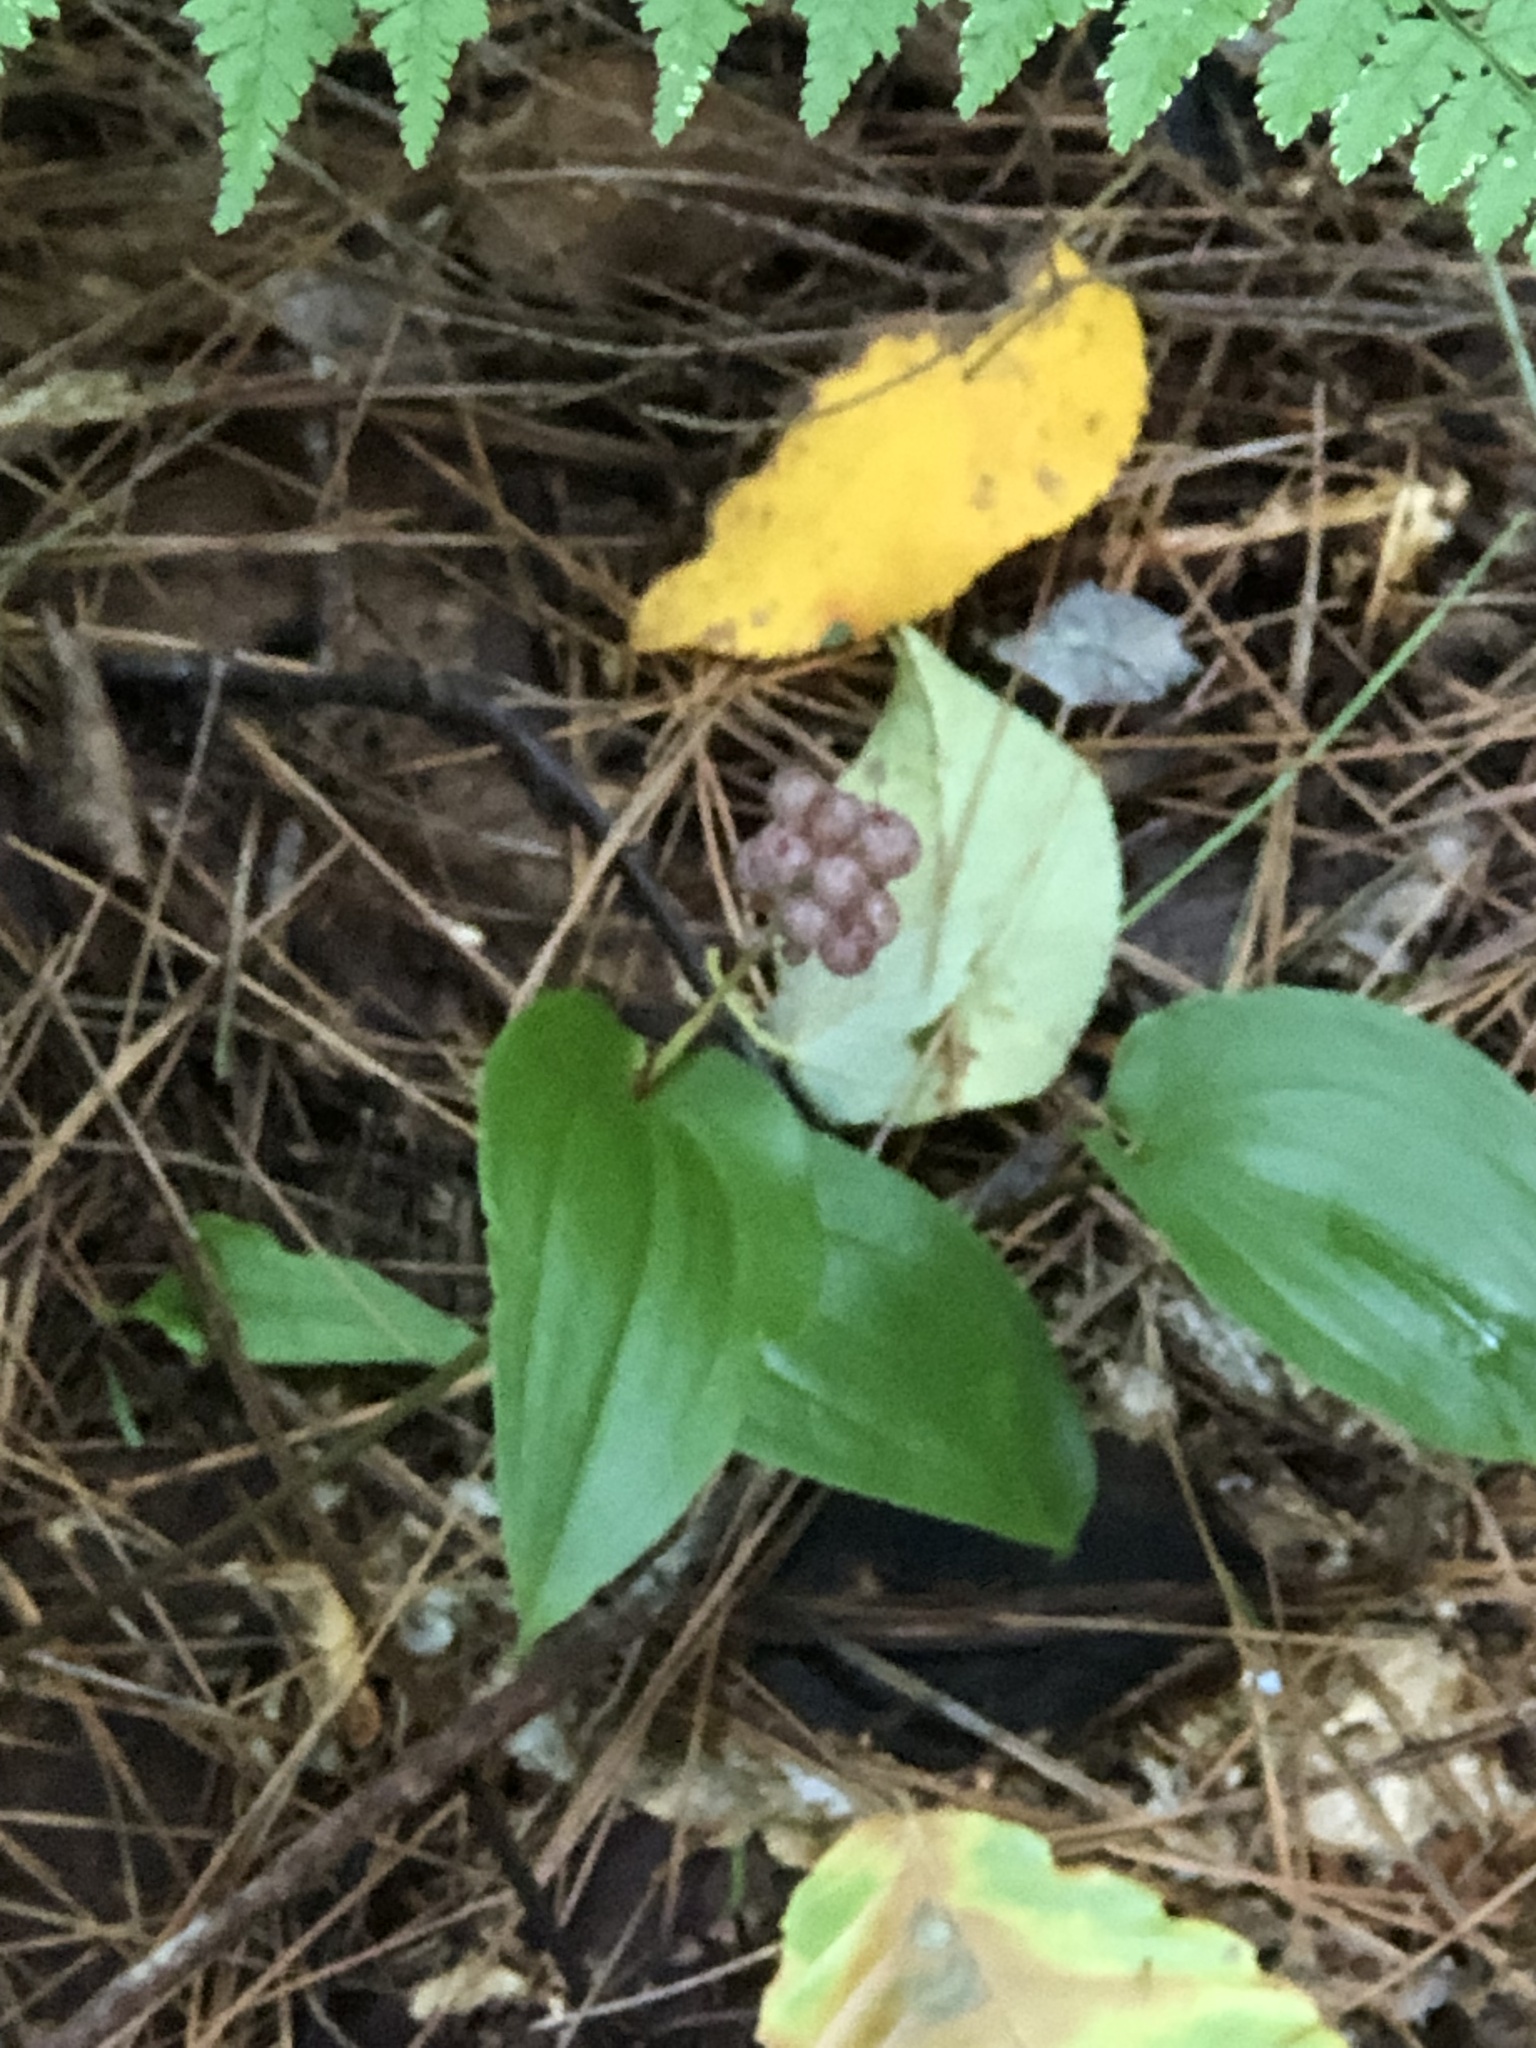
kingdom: Plantae
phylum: Tracheophyta
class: Liliopsida
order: Asparagales
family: Asparagaceae
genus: Maianthemum
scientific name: Maianthemum canadense
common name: False lily-of-the-valley
